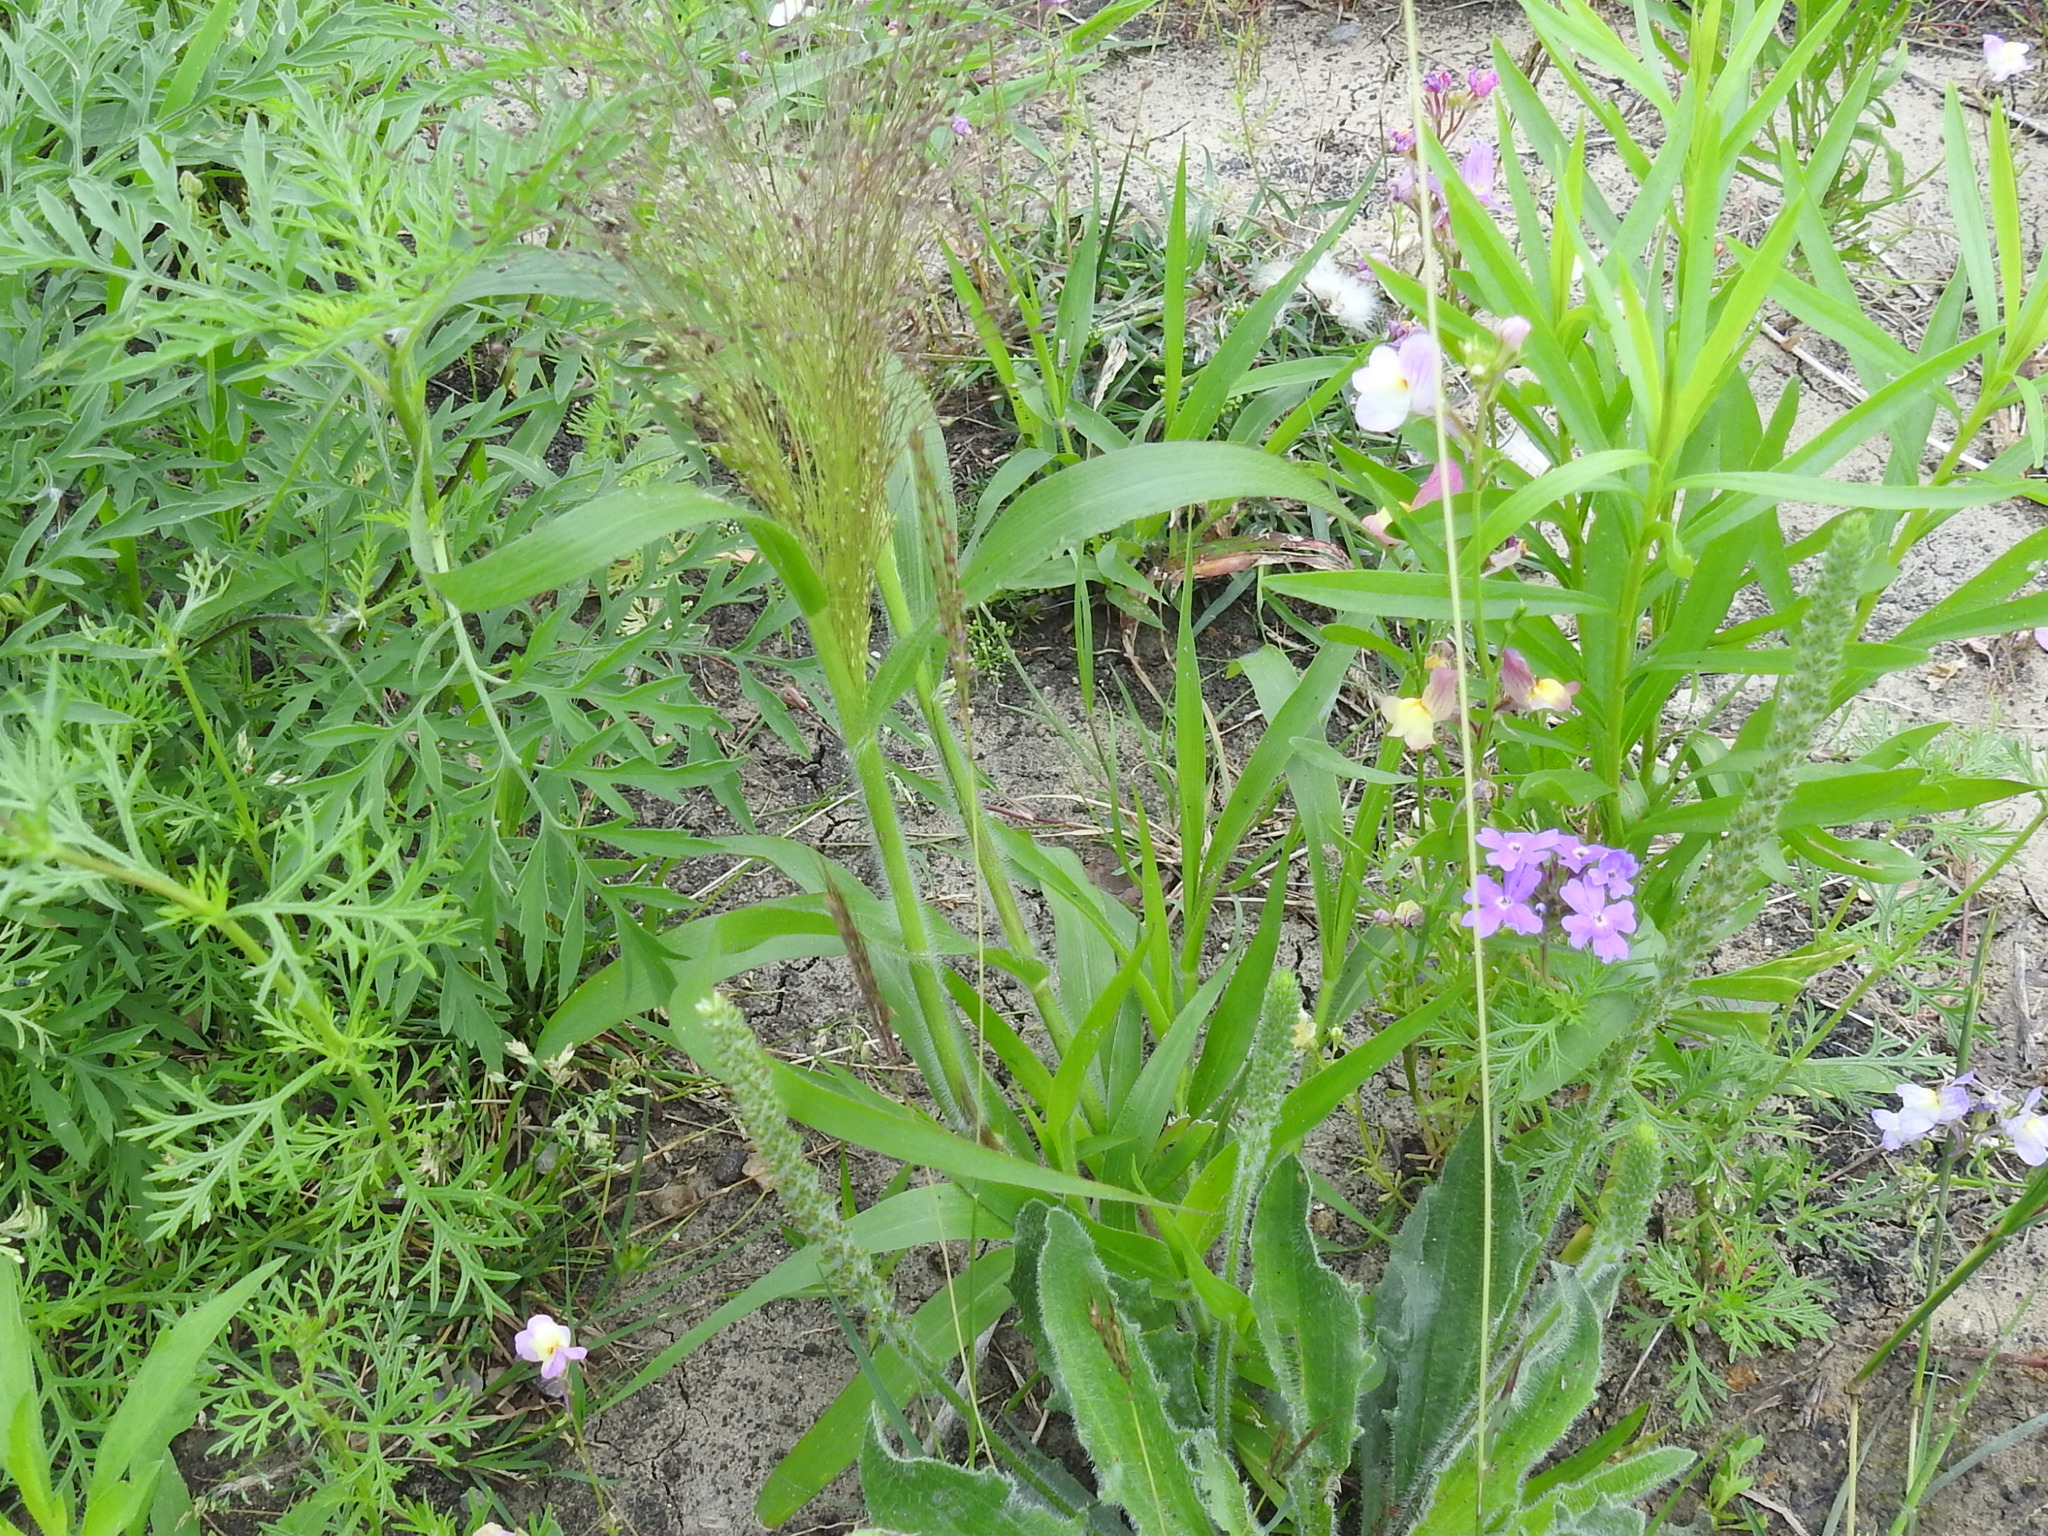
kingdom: Plantae
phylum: Tracheophyta
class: Liliopsida
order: Poales
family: Poaceae
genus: Panicum
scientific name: Panicum capillare
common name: Witch-grass
